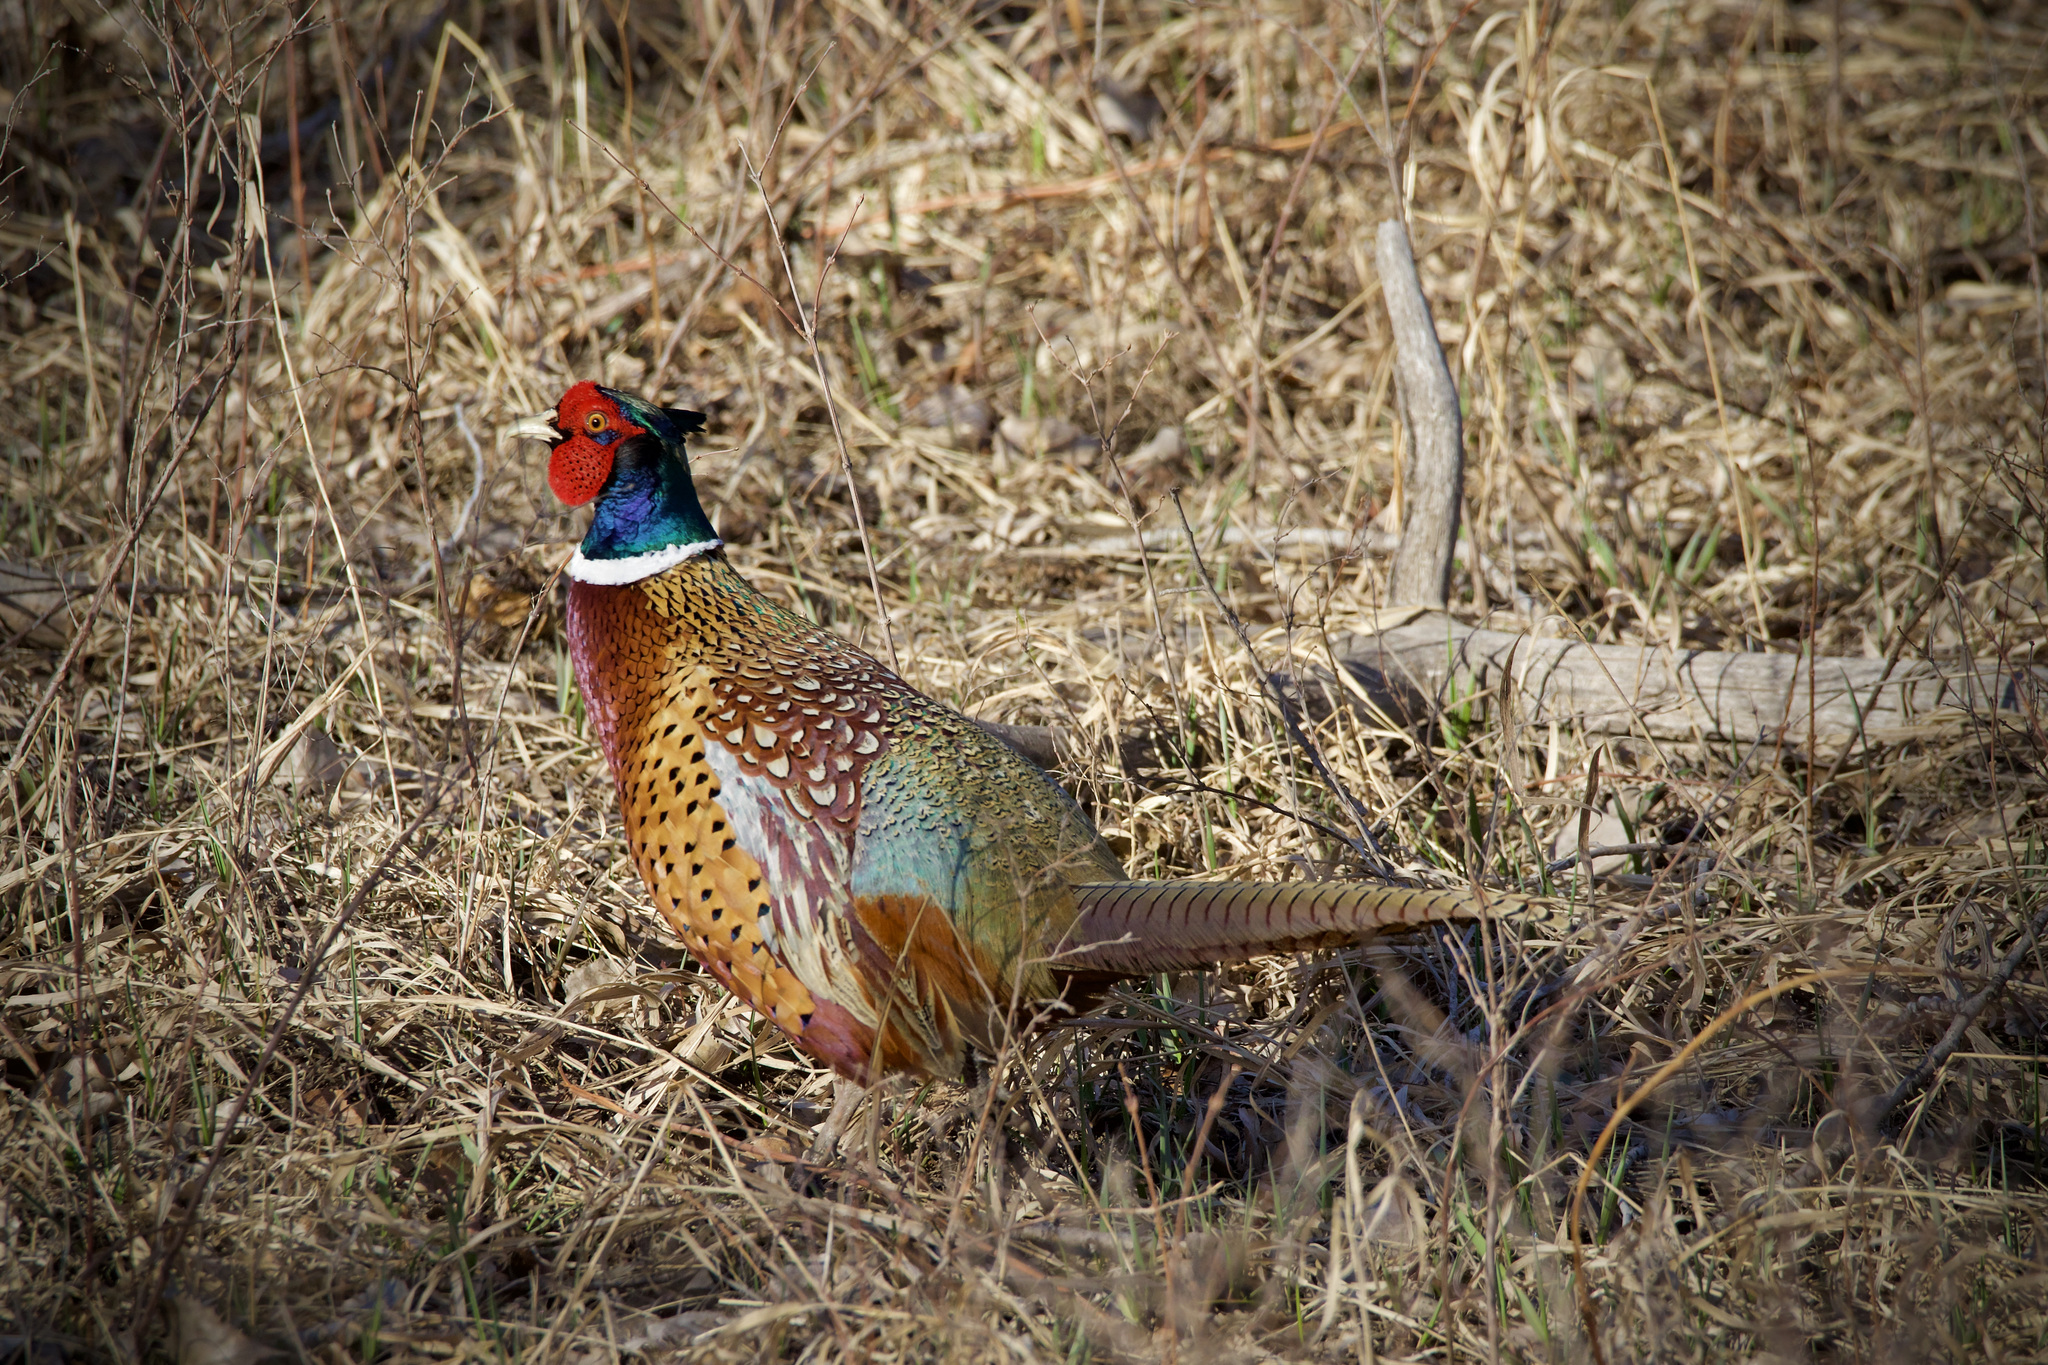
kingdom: Animalia
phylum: Chordata
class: Aves
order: Galliformes
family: Phasianidae
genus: Phasianus
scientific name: Phasianus colchicus
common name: Common pheasant
